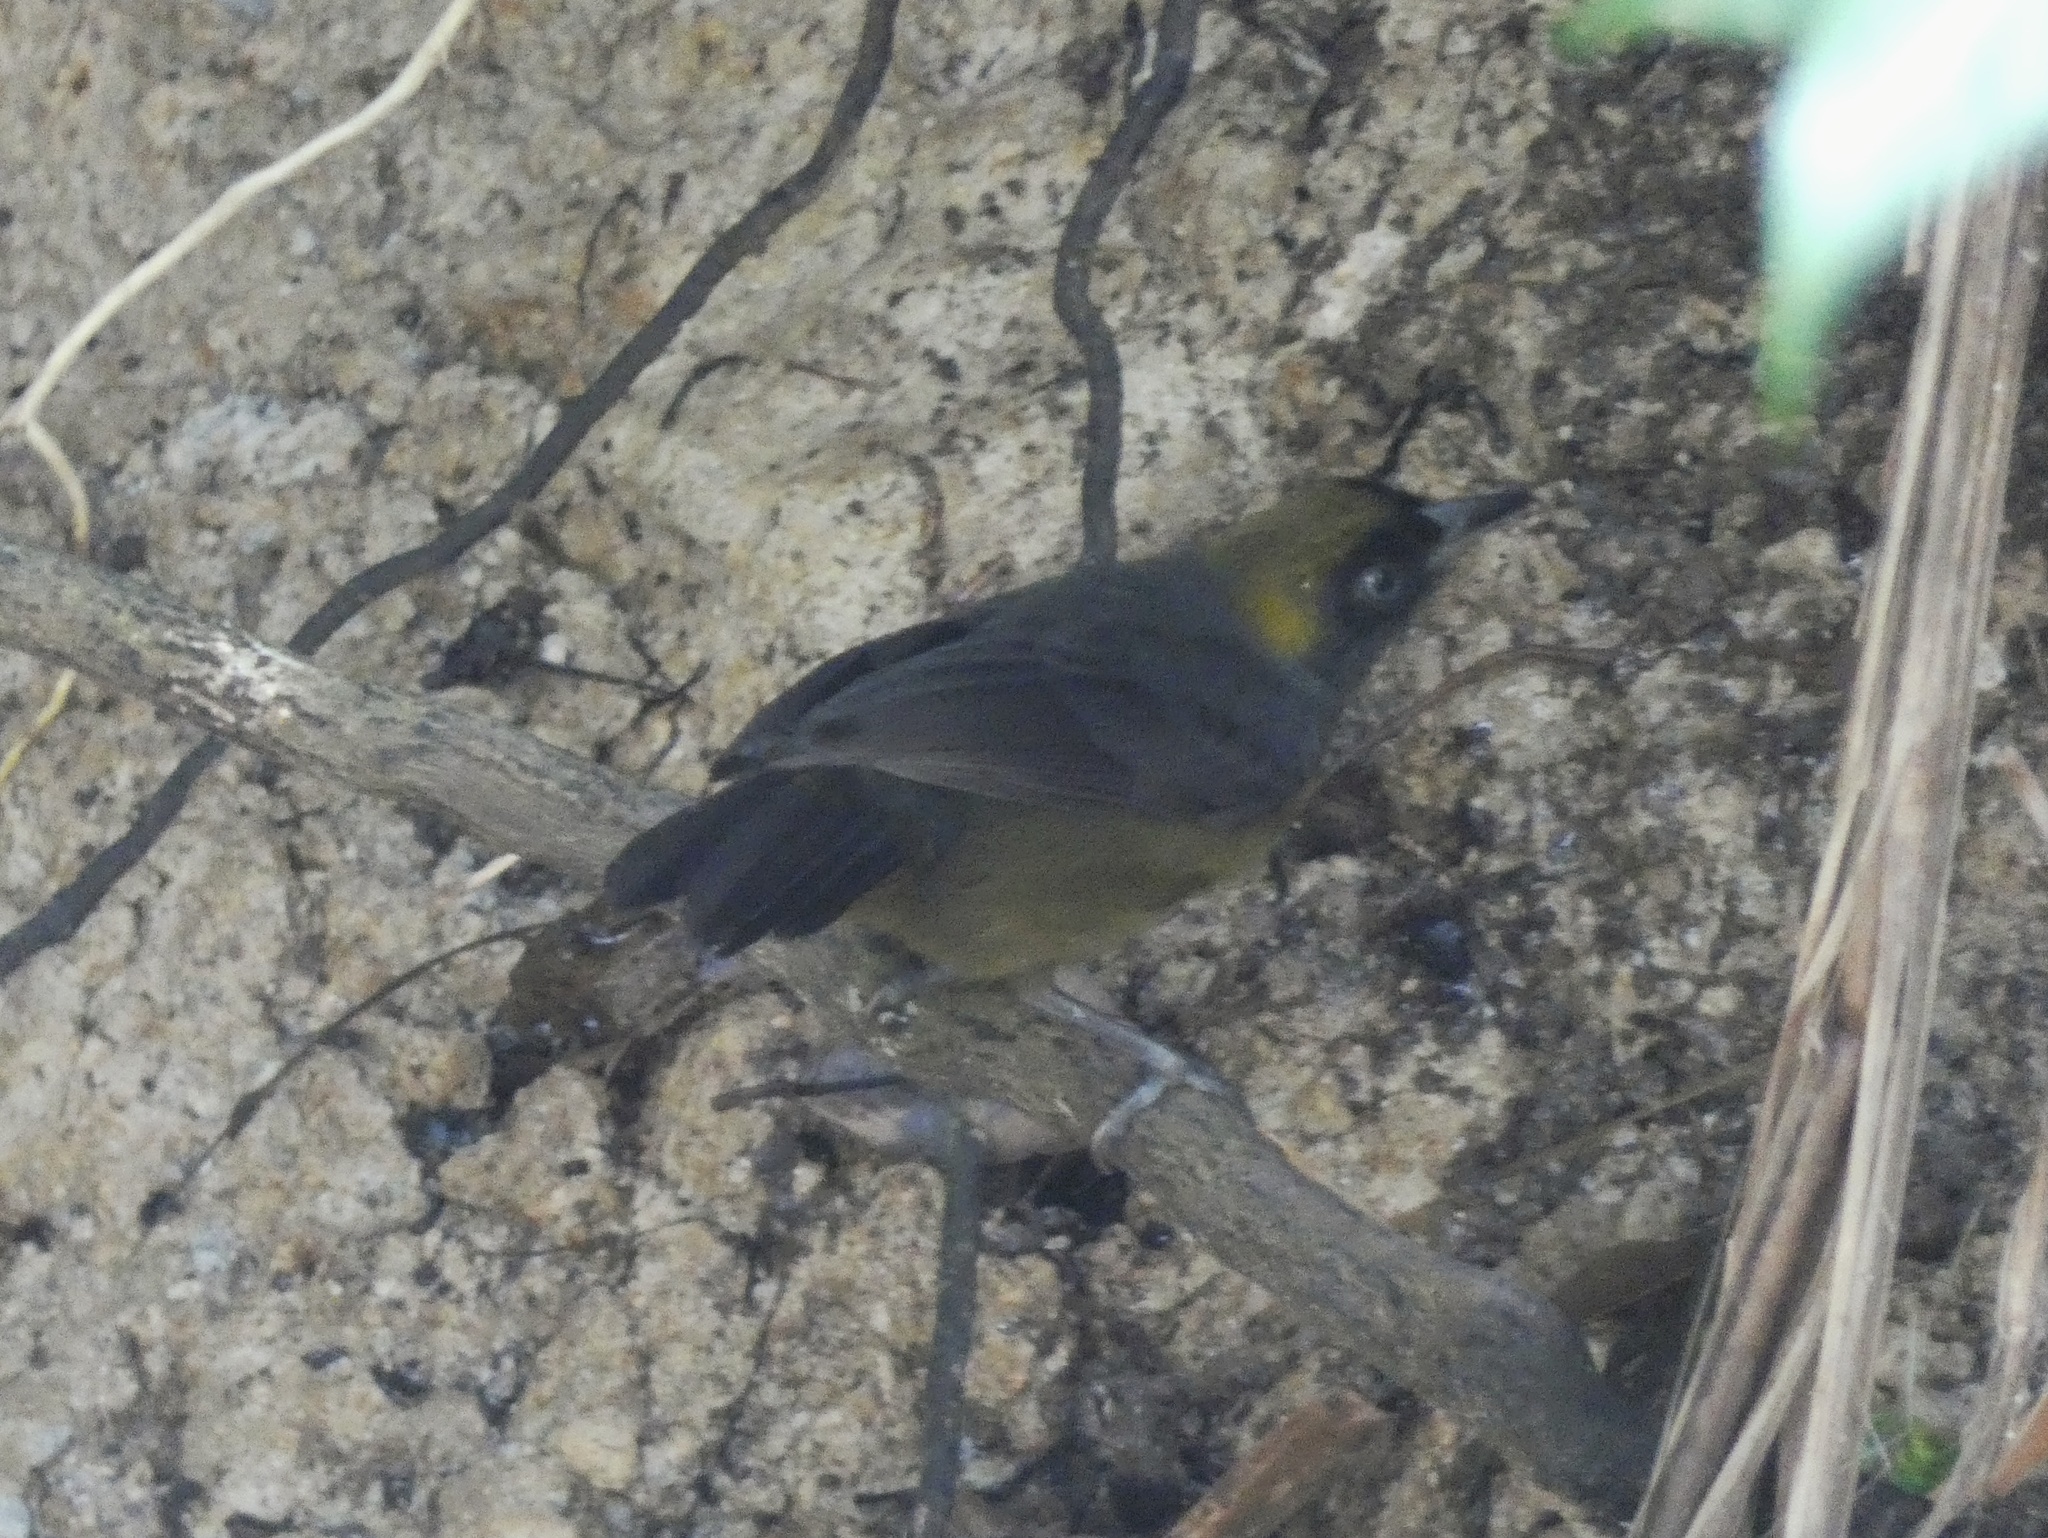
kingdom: Animalia
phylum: Chordata
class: Aves
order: Passeriformes
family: Mitrospingidae
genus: Mitrospingus
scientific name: Mitrospingus cassinii
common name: Dusky-faced tanager
